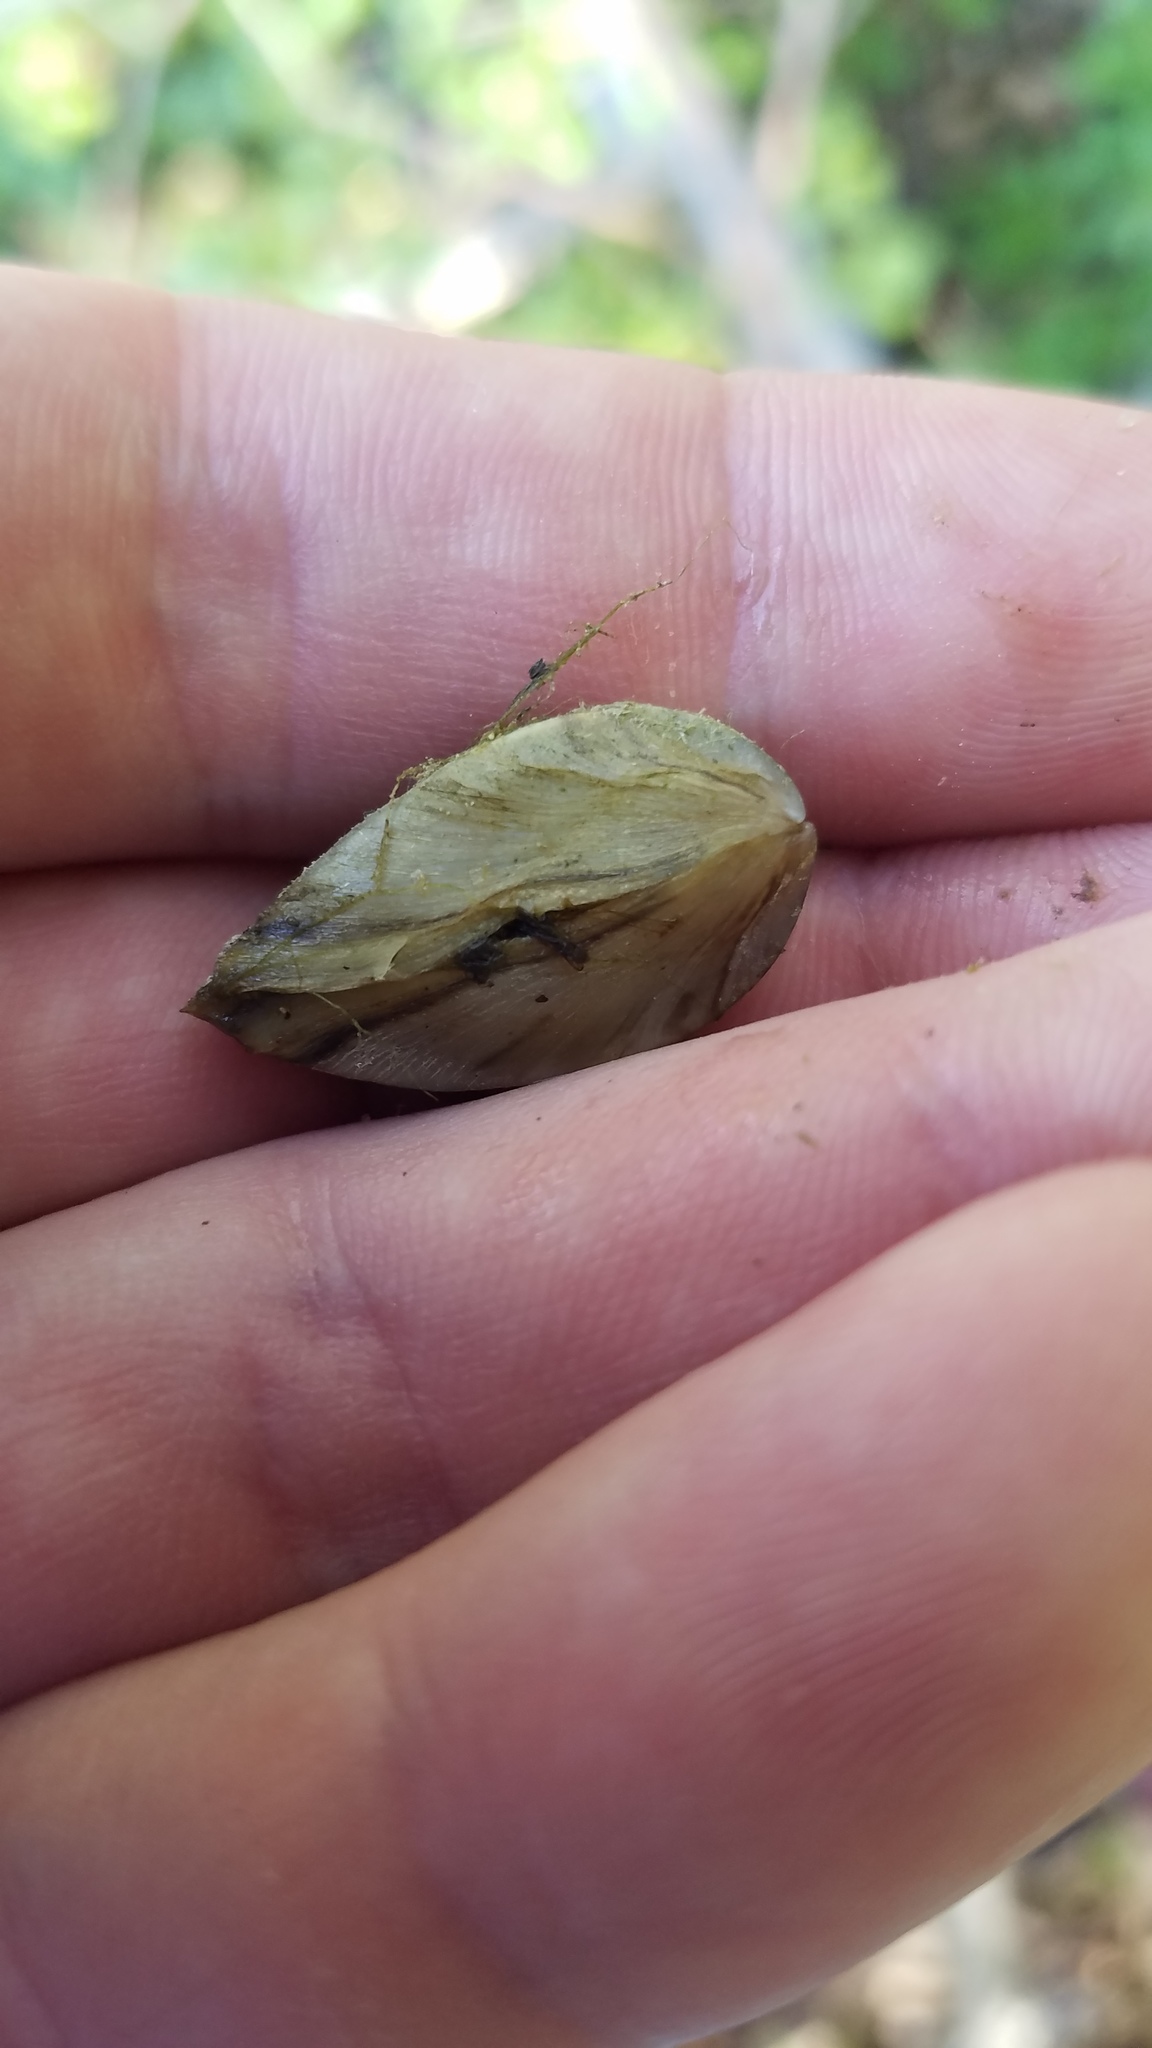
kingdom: Animalia
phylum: Mollusca
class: Bivalvia
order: Myida
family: Dreissenidae
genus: Dreissena
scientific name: Dreissena polymorpha
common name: Zebra mussel
